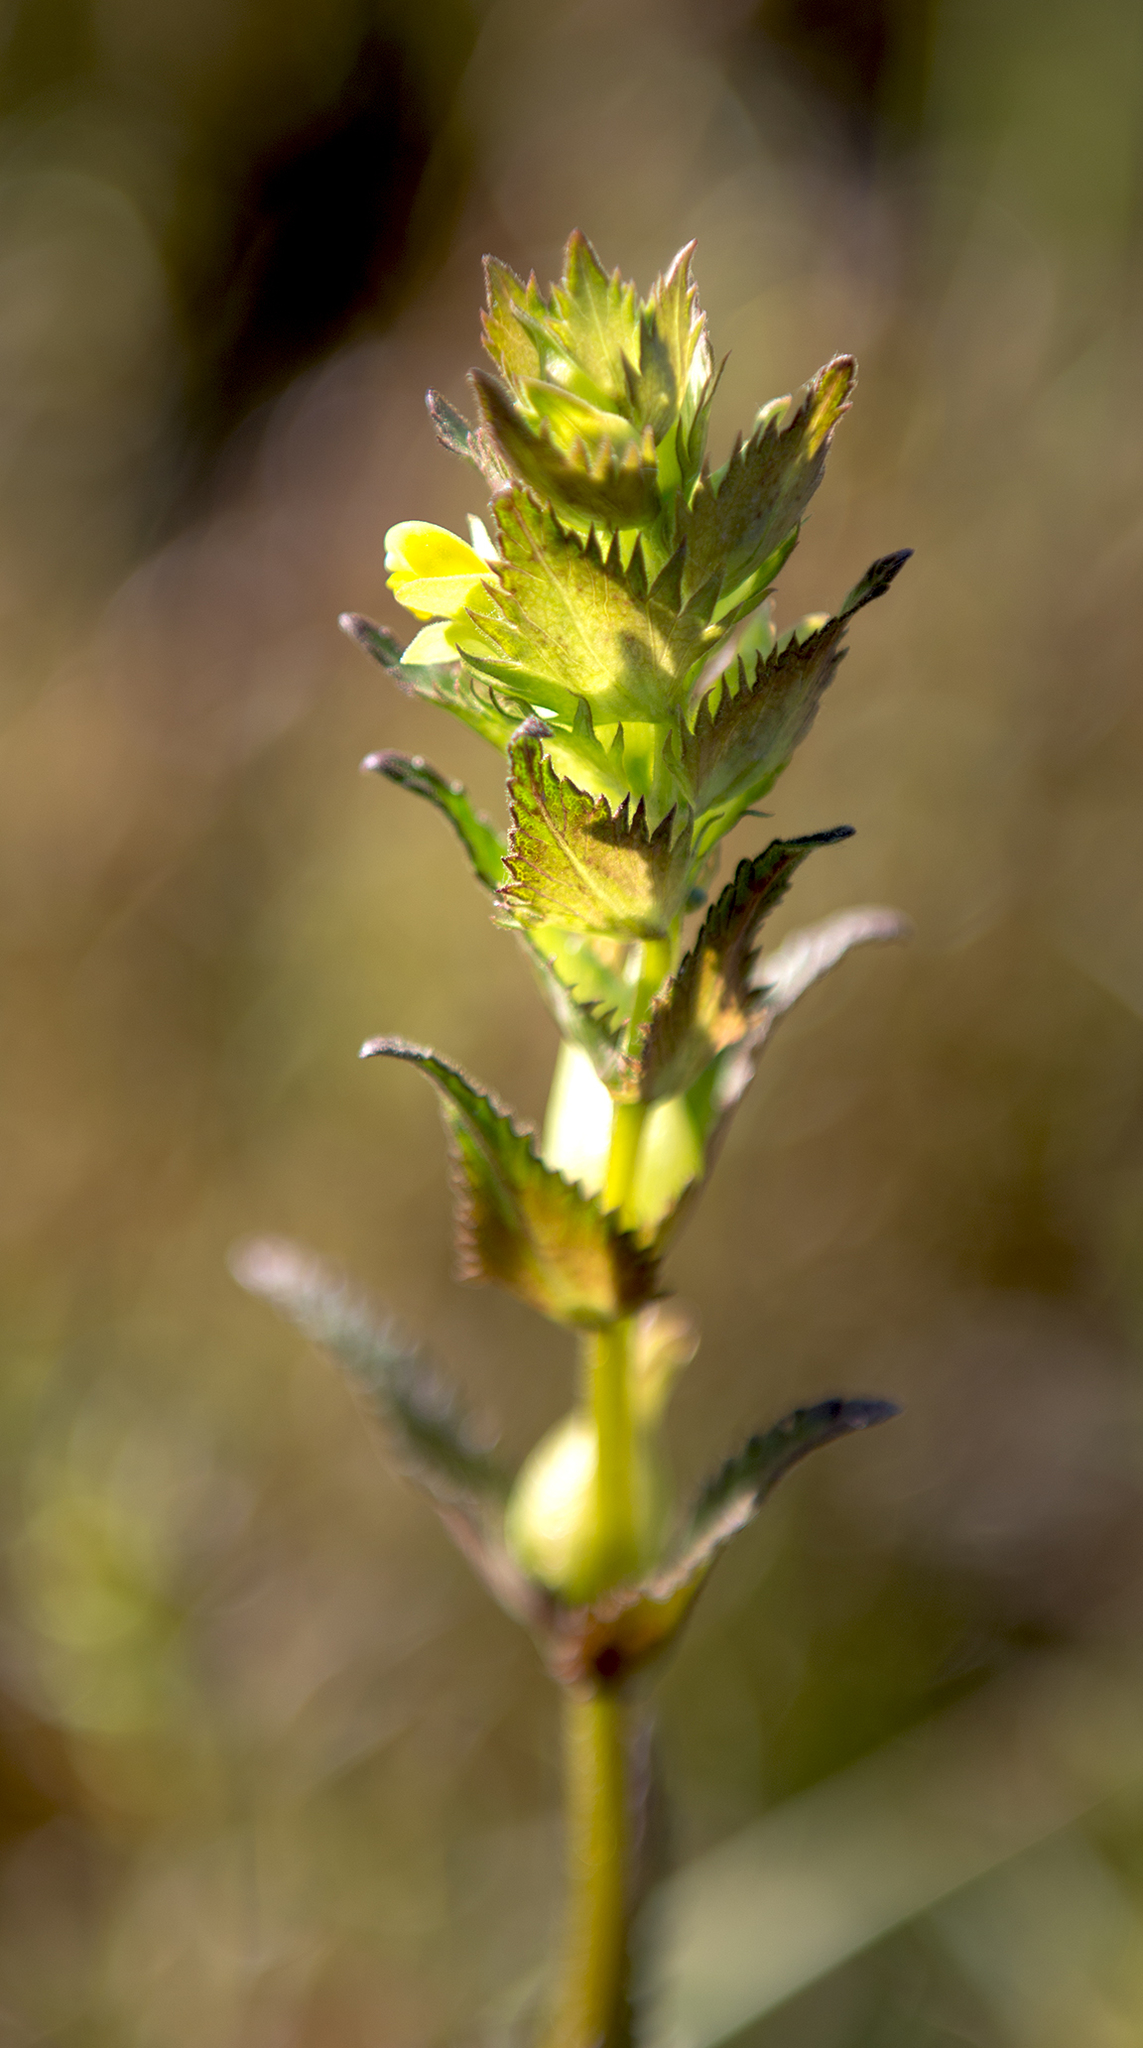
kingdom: Plantae
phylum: Tracheophyta
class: Magnoliopsida
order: Lamiales
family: Orobanchaceae
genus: Rhinanthus
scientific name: Rhinanthus minor
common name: Yellow-rattle
